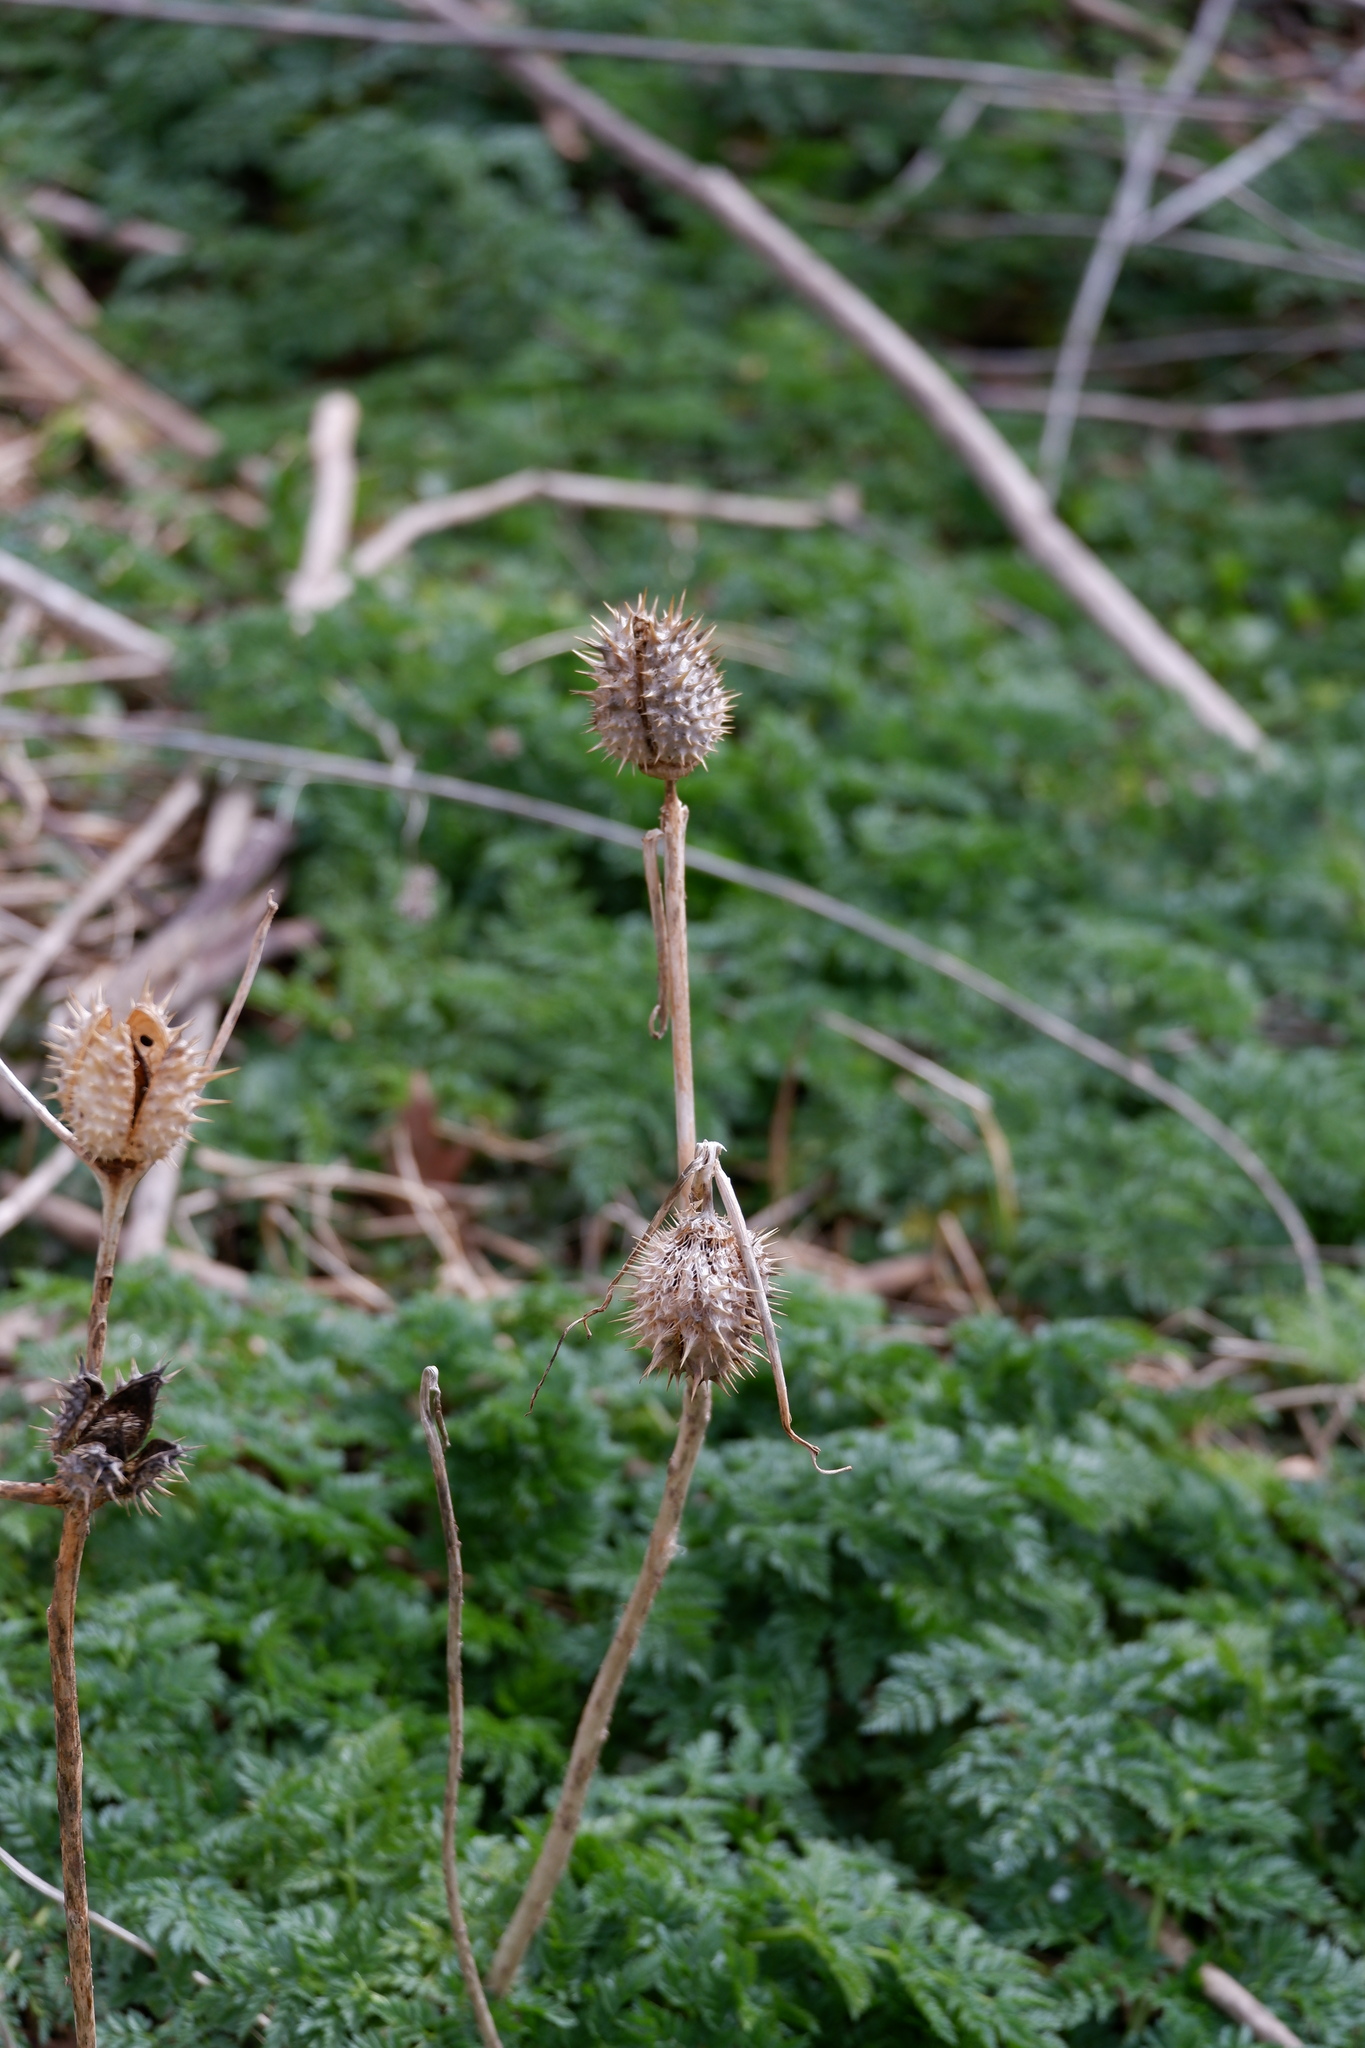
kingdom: Plantae
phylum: Tracheophyta
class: Magnoliopsida
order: Solanales
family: Solanaceae
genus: Datura
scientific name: Datura stramonium
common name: Thorn-apple
